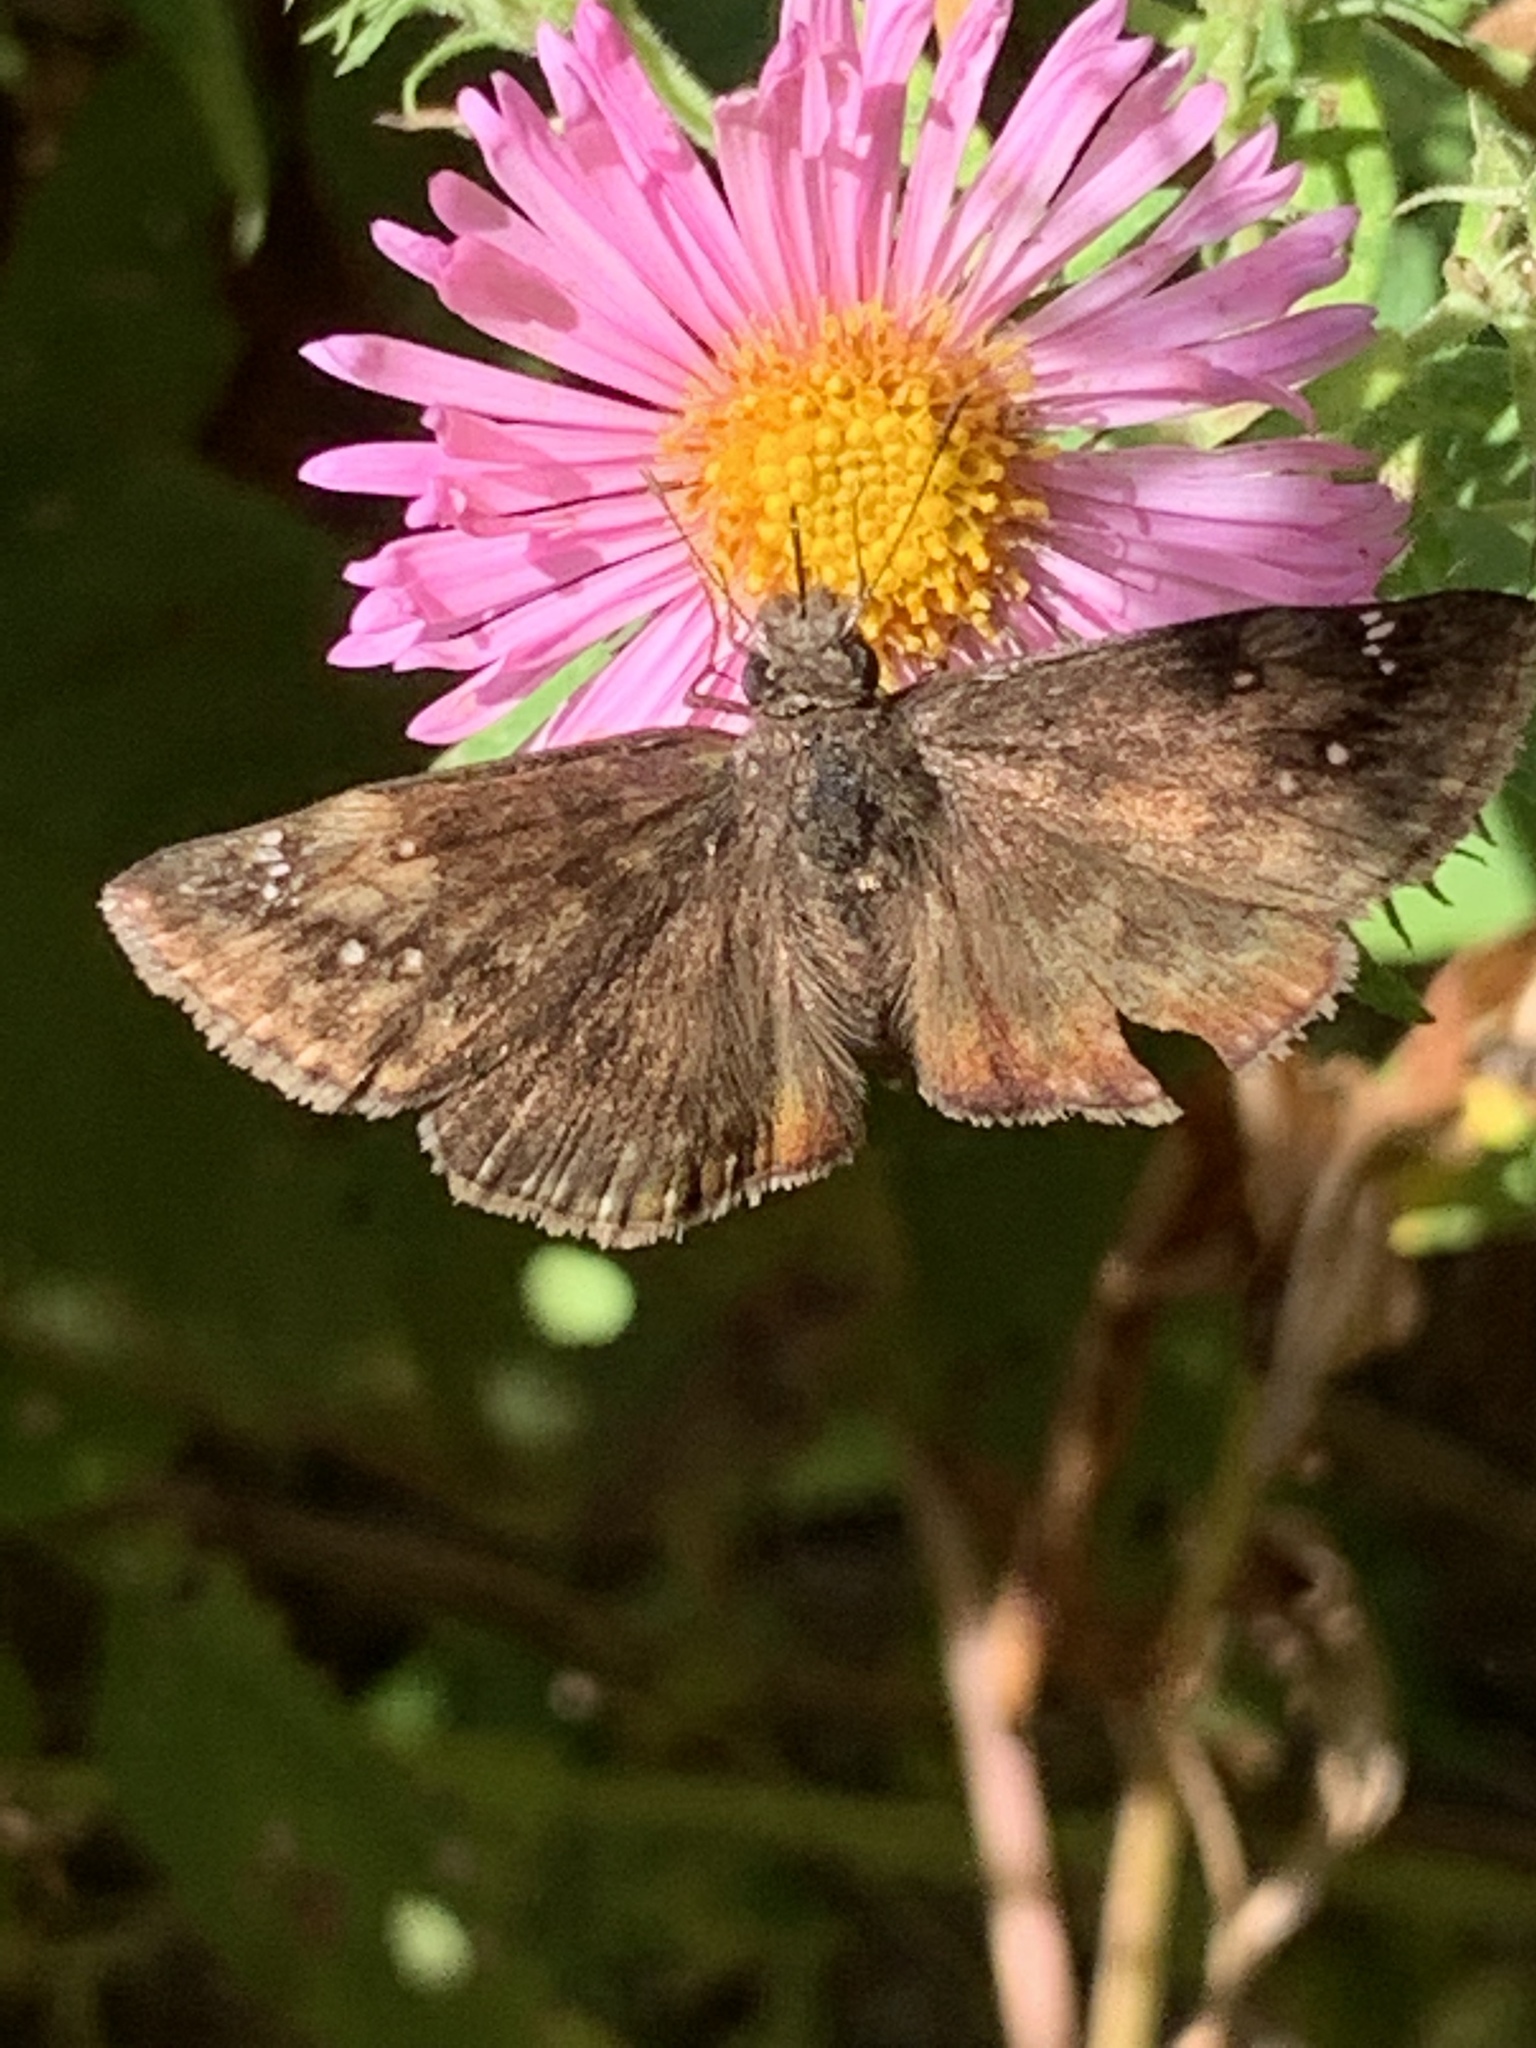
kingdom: Animalia
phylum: Arthropoda
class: Insecta
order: Lepidoptera
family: Hesperiidae
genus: Erynnis
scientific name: Erynnis baptisiae
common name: Wild indigo duskywing
